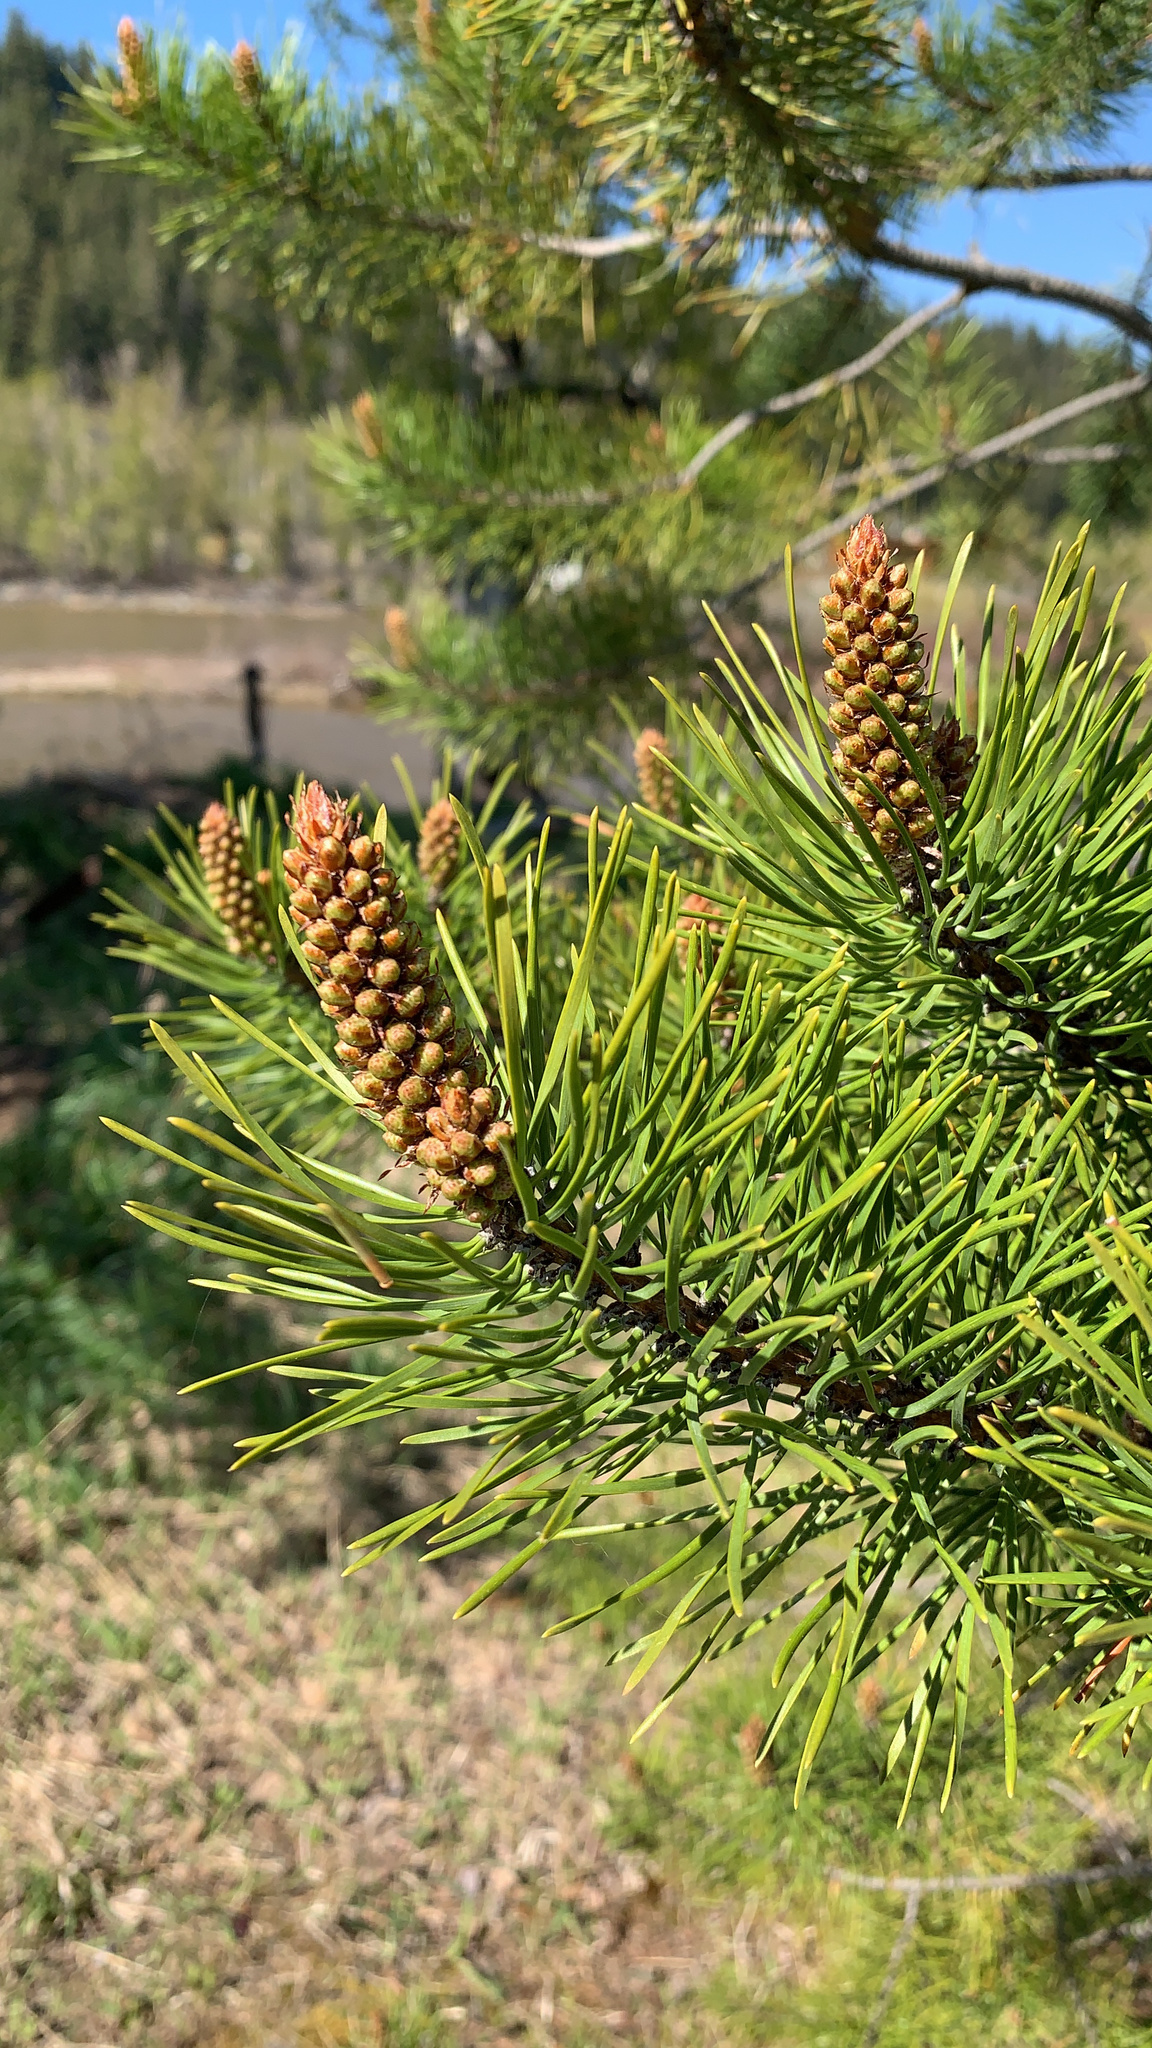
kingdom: Plantae
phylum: Tracheophyta
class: Pinopsida
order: Pinales
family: Pinaceae
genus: Pinus
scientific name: Pinus contorta
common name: Lodgepole pine
